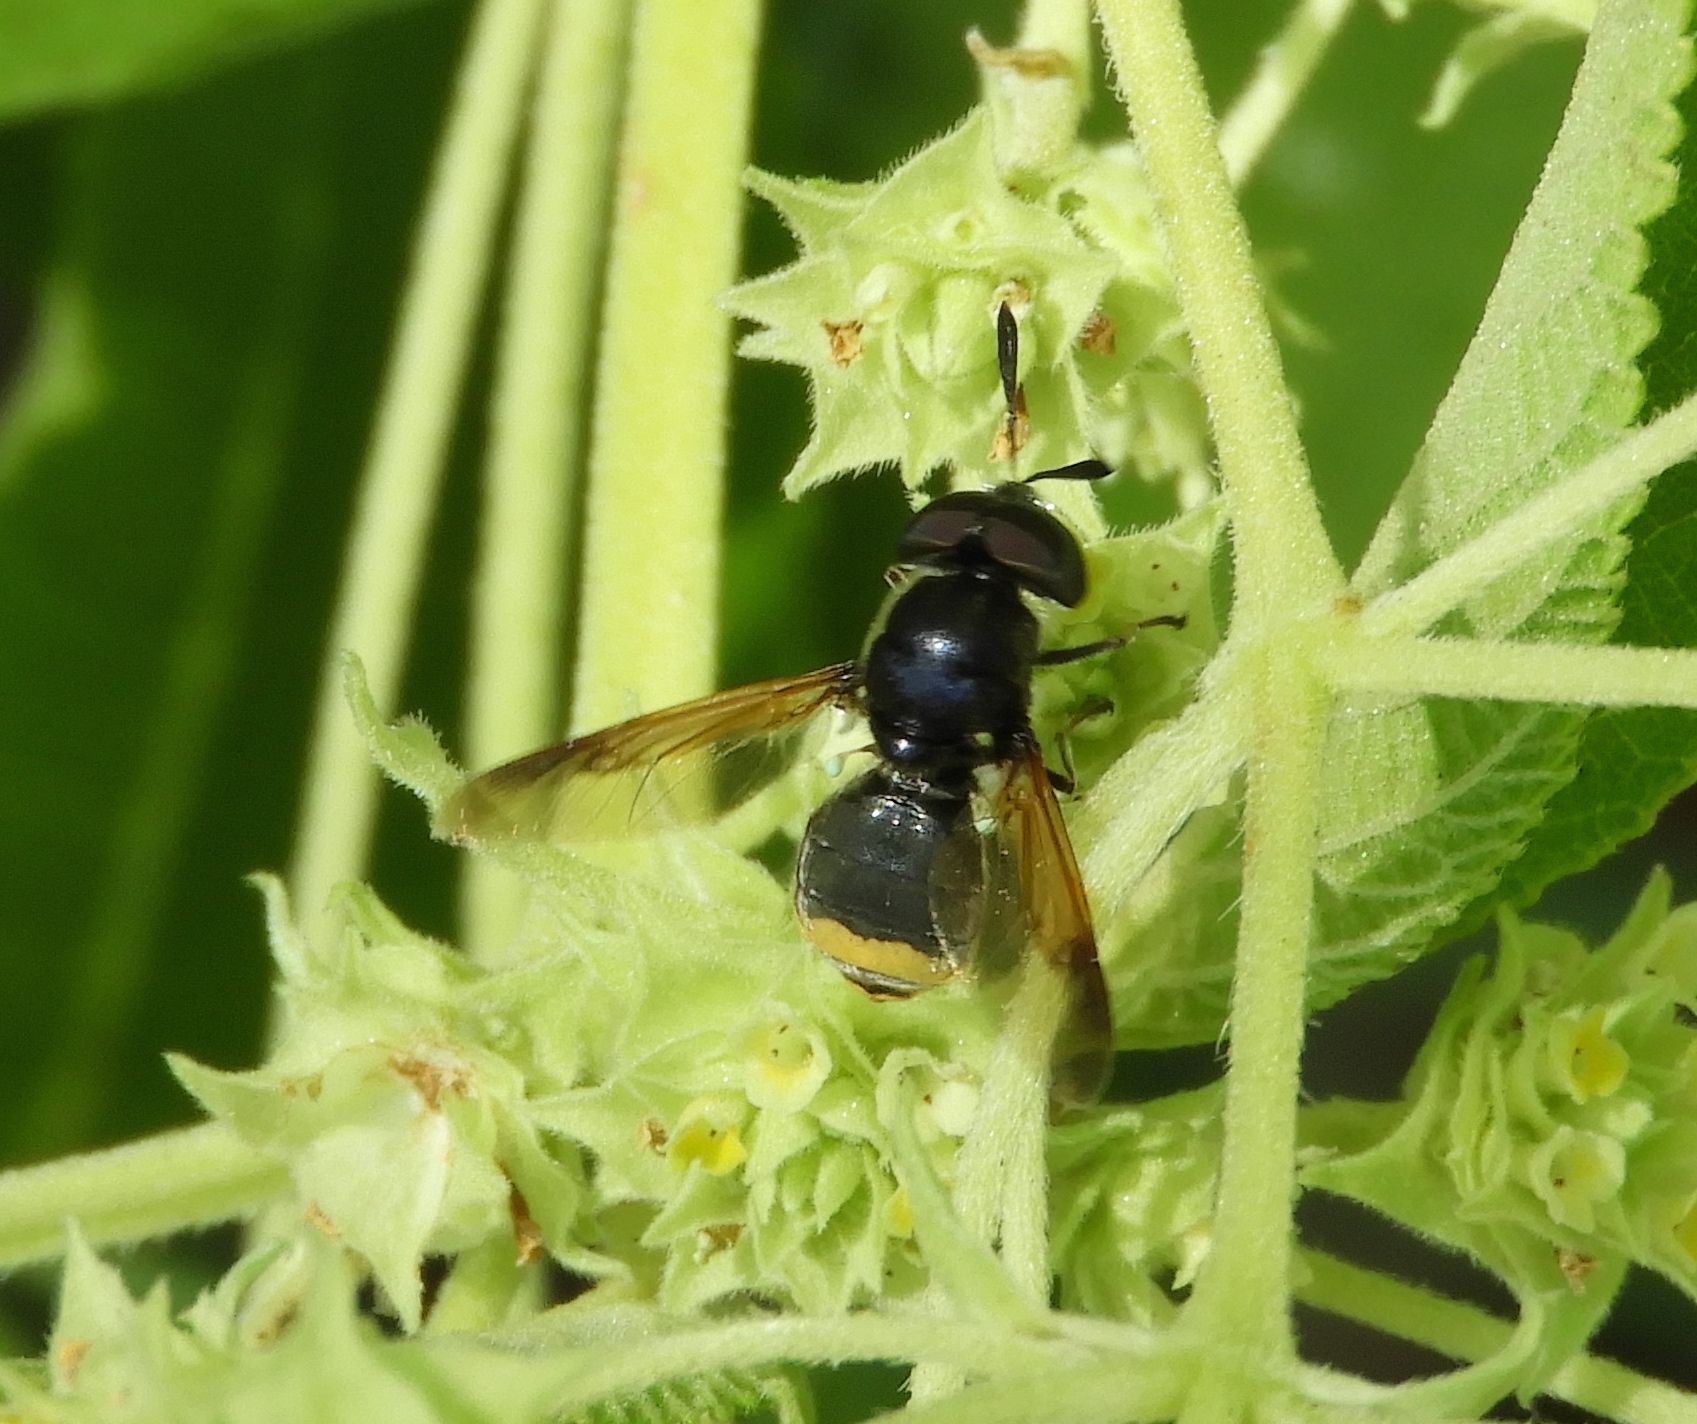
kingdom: Animalia
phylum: Arthropoda
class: Insecta
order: Diptera
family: Stratiomyidae
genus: Hoplitimyia
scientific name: Hoplitimyia
